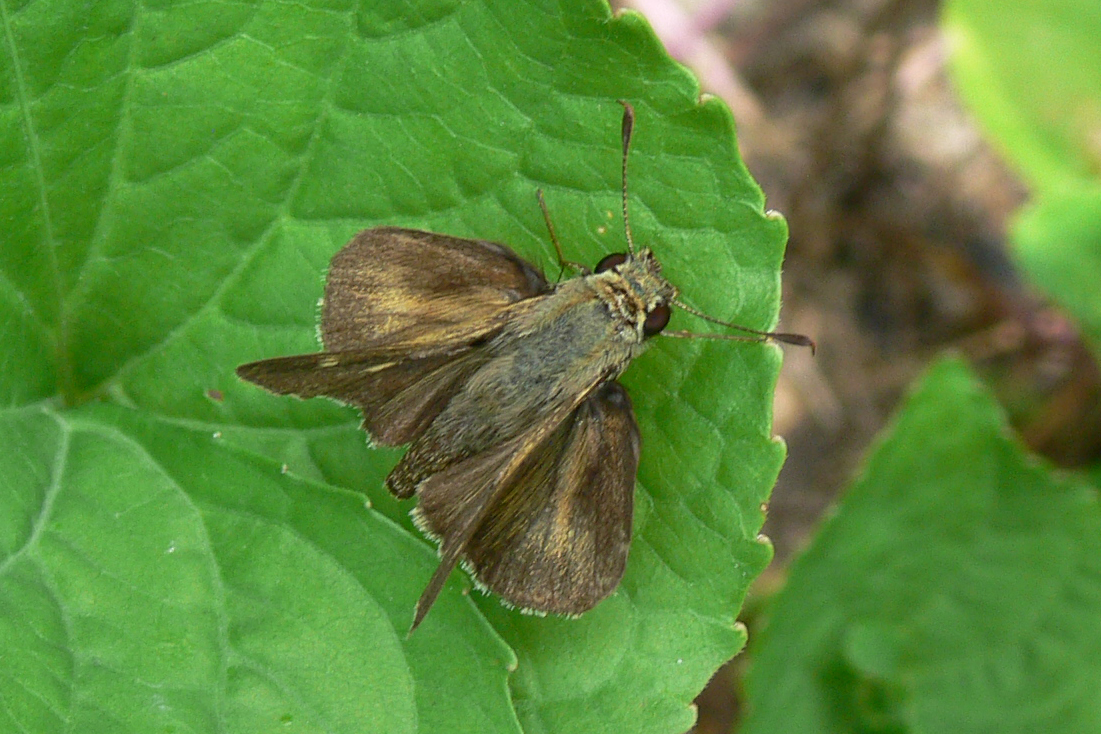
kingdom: Animalia
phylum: Arthropoda
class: Insecta
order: Lepidoptera
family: Hesperiidae
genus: Polites
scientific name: Polites egeremet
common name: Northern broken-dash
